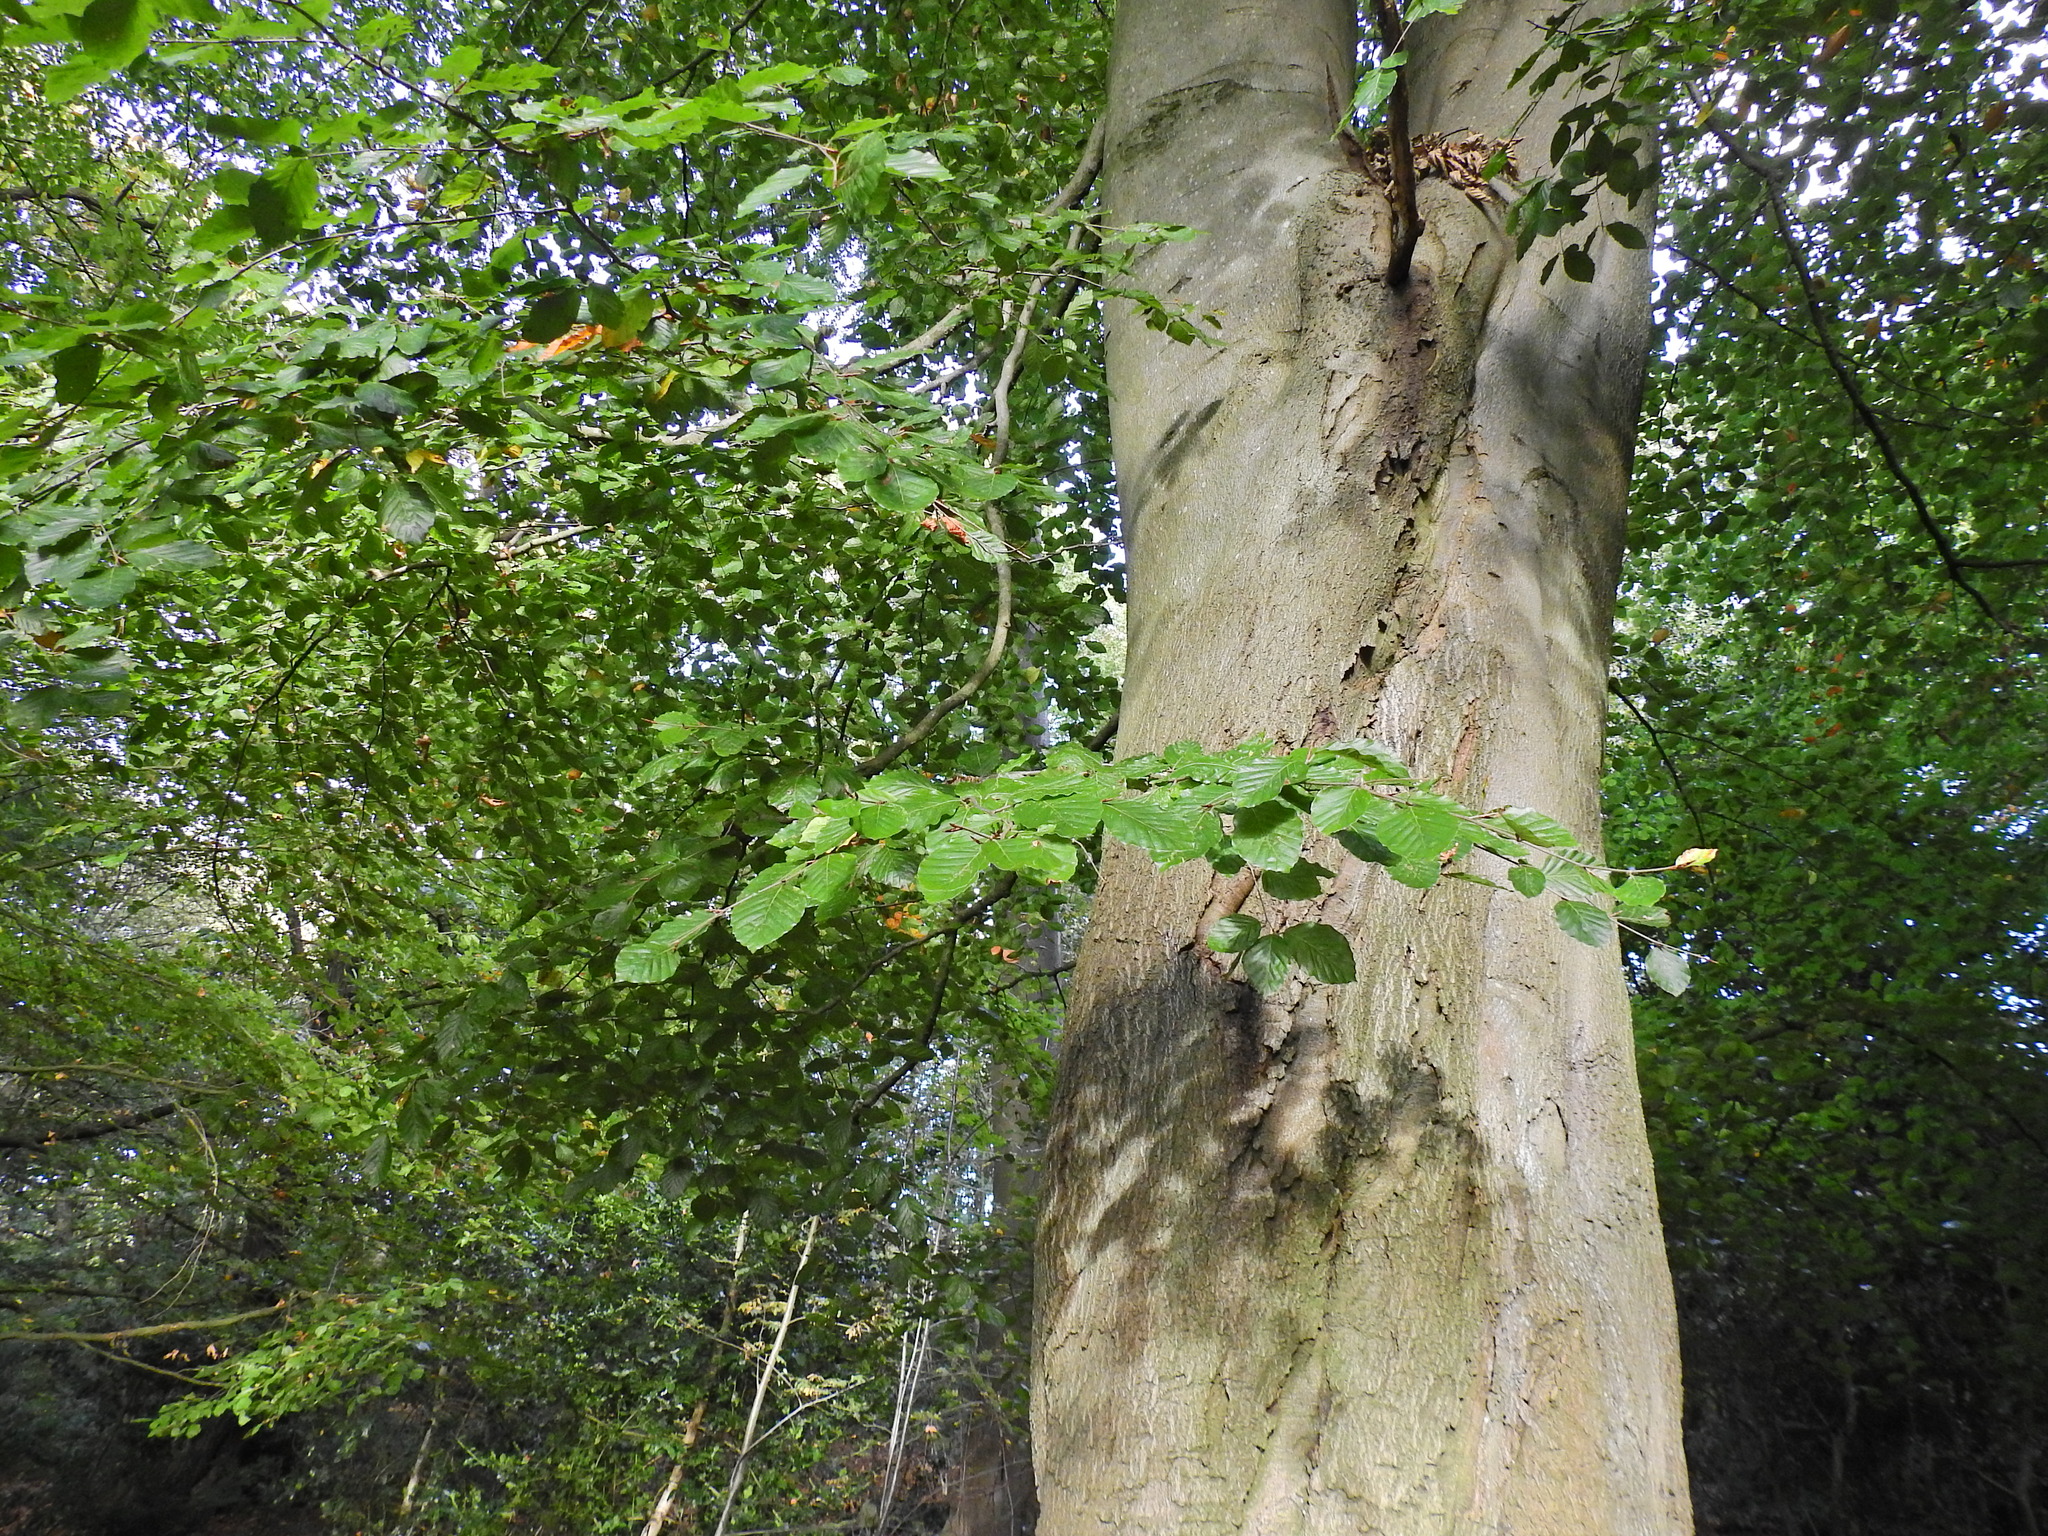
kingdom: Plantae
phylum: Tracheophyta
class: Magnoliopsida
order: Fagales
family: Fagaceae
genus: Fagus
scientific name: Fagus sylvatica
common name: Beech
